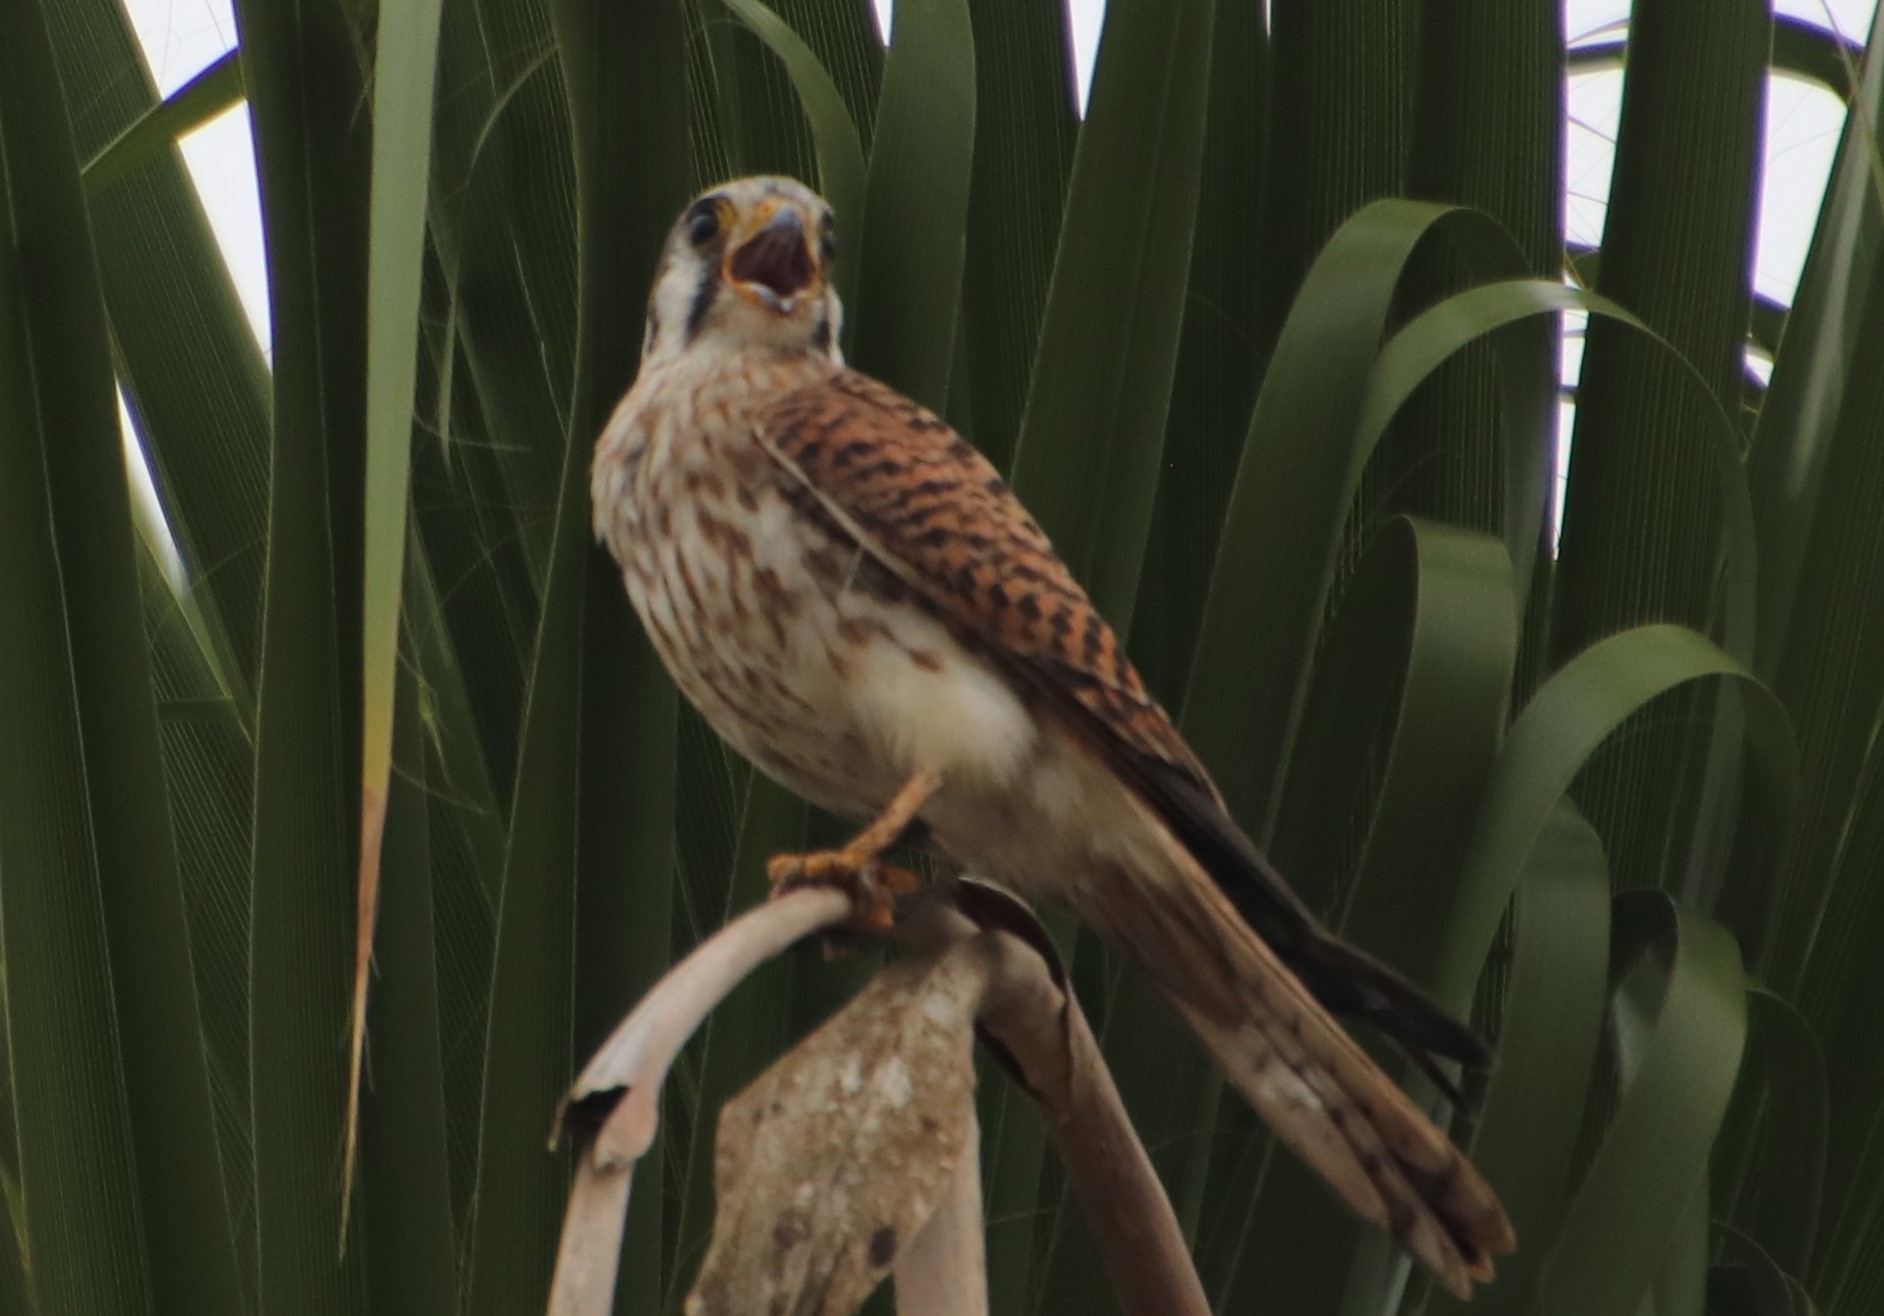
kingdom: Animalia
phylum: Chordata
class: Aves
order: Falconiformes
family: Falconidae
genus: Falco
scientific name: Falco sparverius
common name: American kestrel
